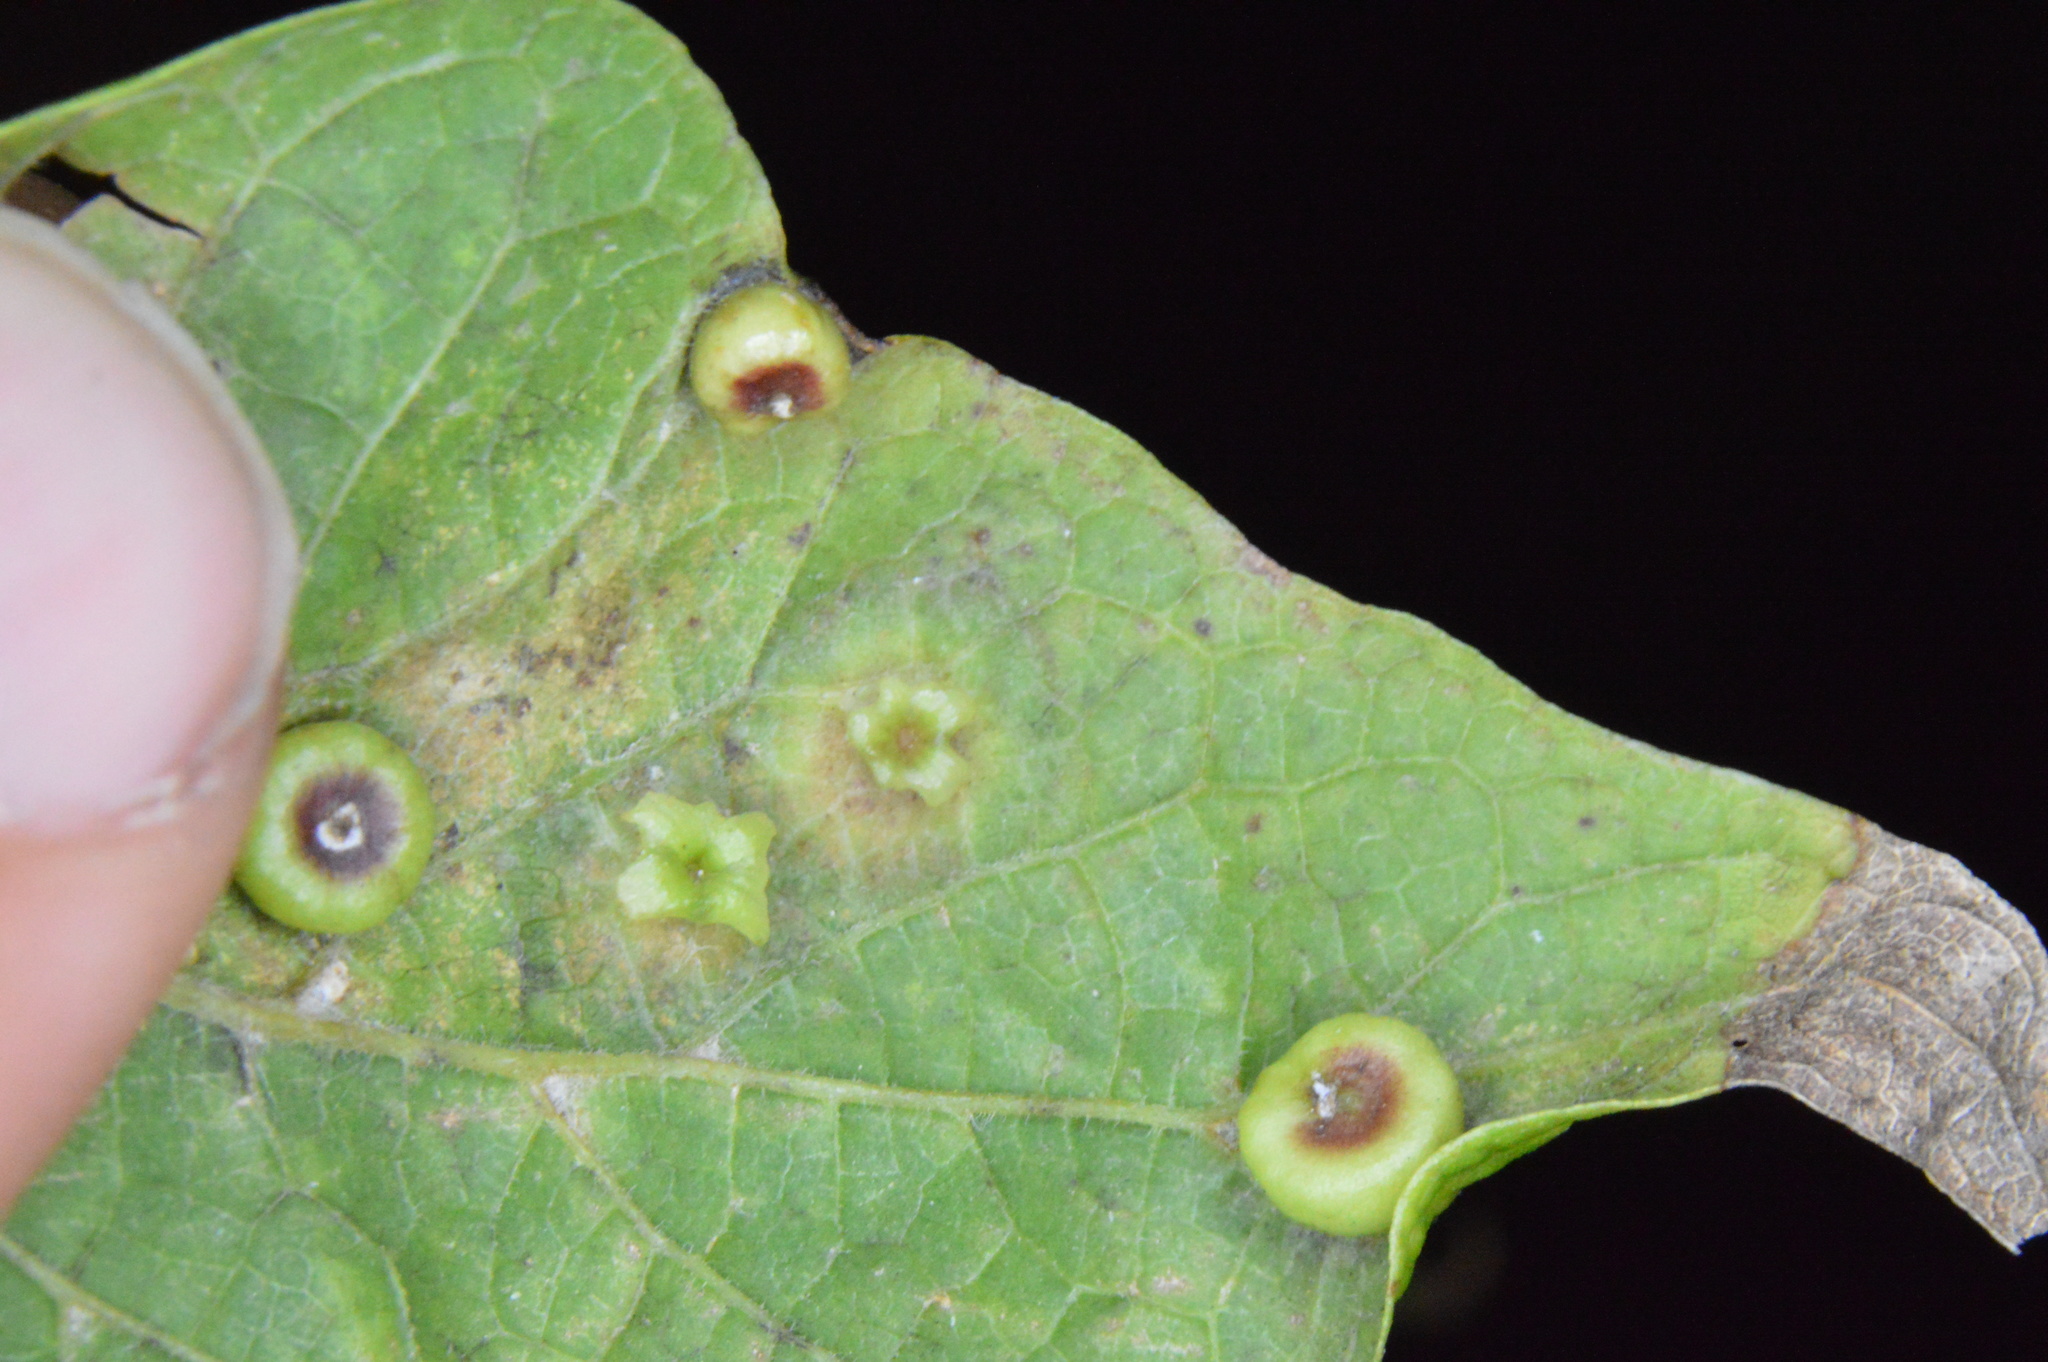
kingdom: Animalia
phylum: Arthropoda
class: Insecta
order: Hemiptera
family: Aphalaridae
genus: Pachypsylla
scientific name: Pachypsylla celtidisasterisca
